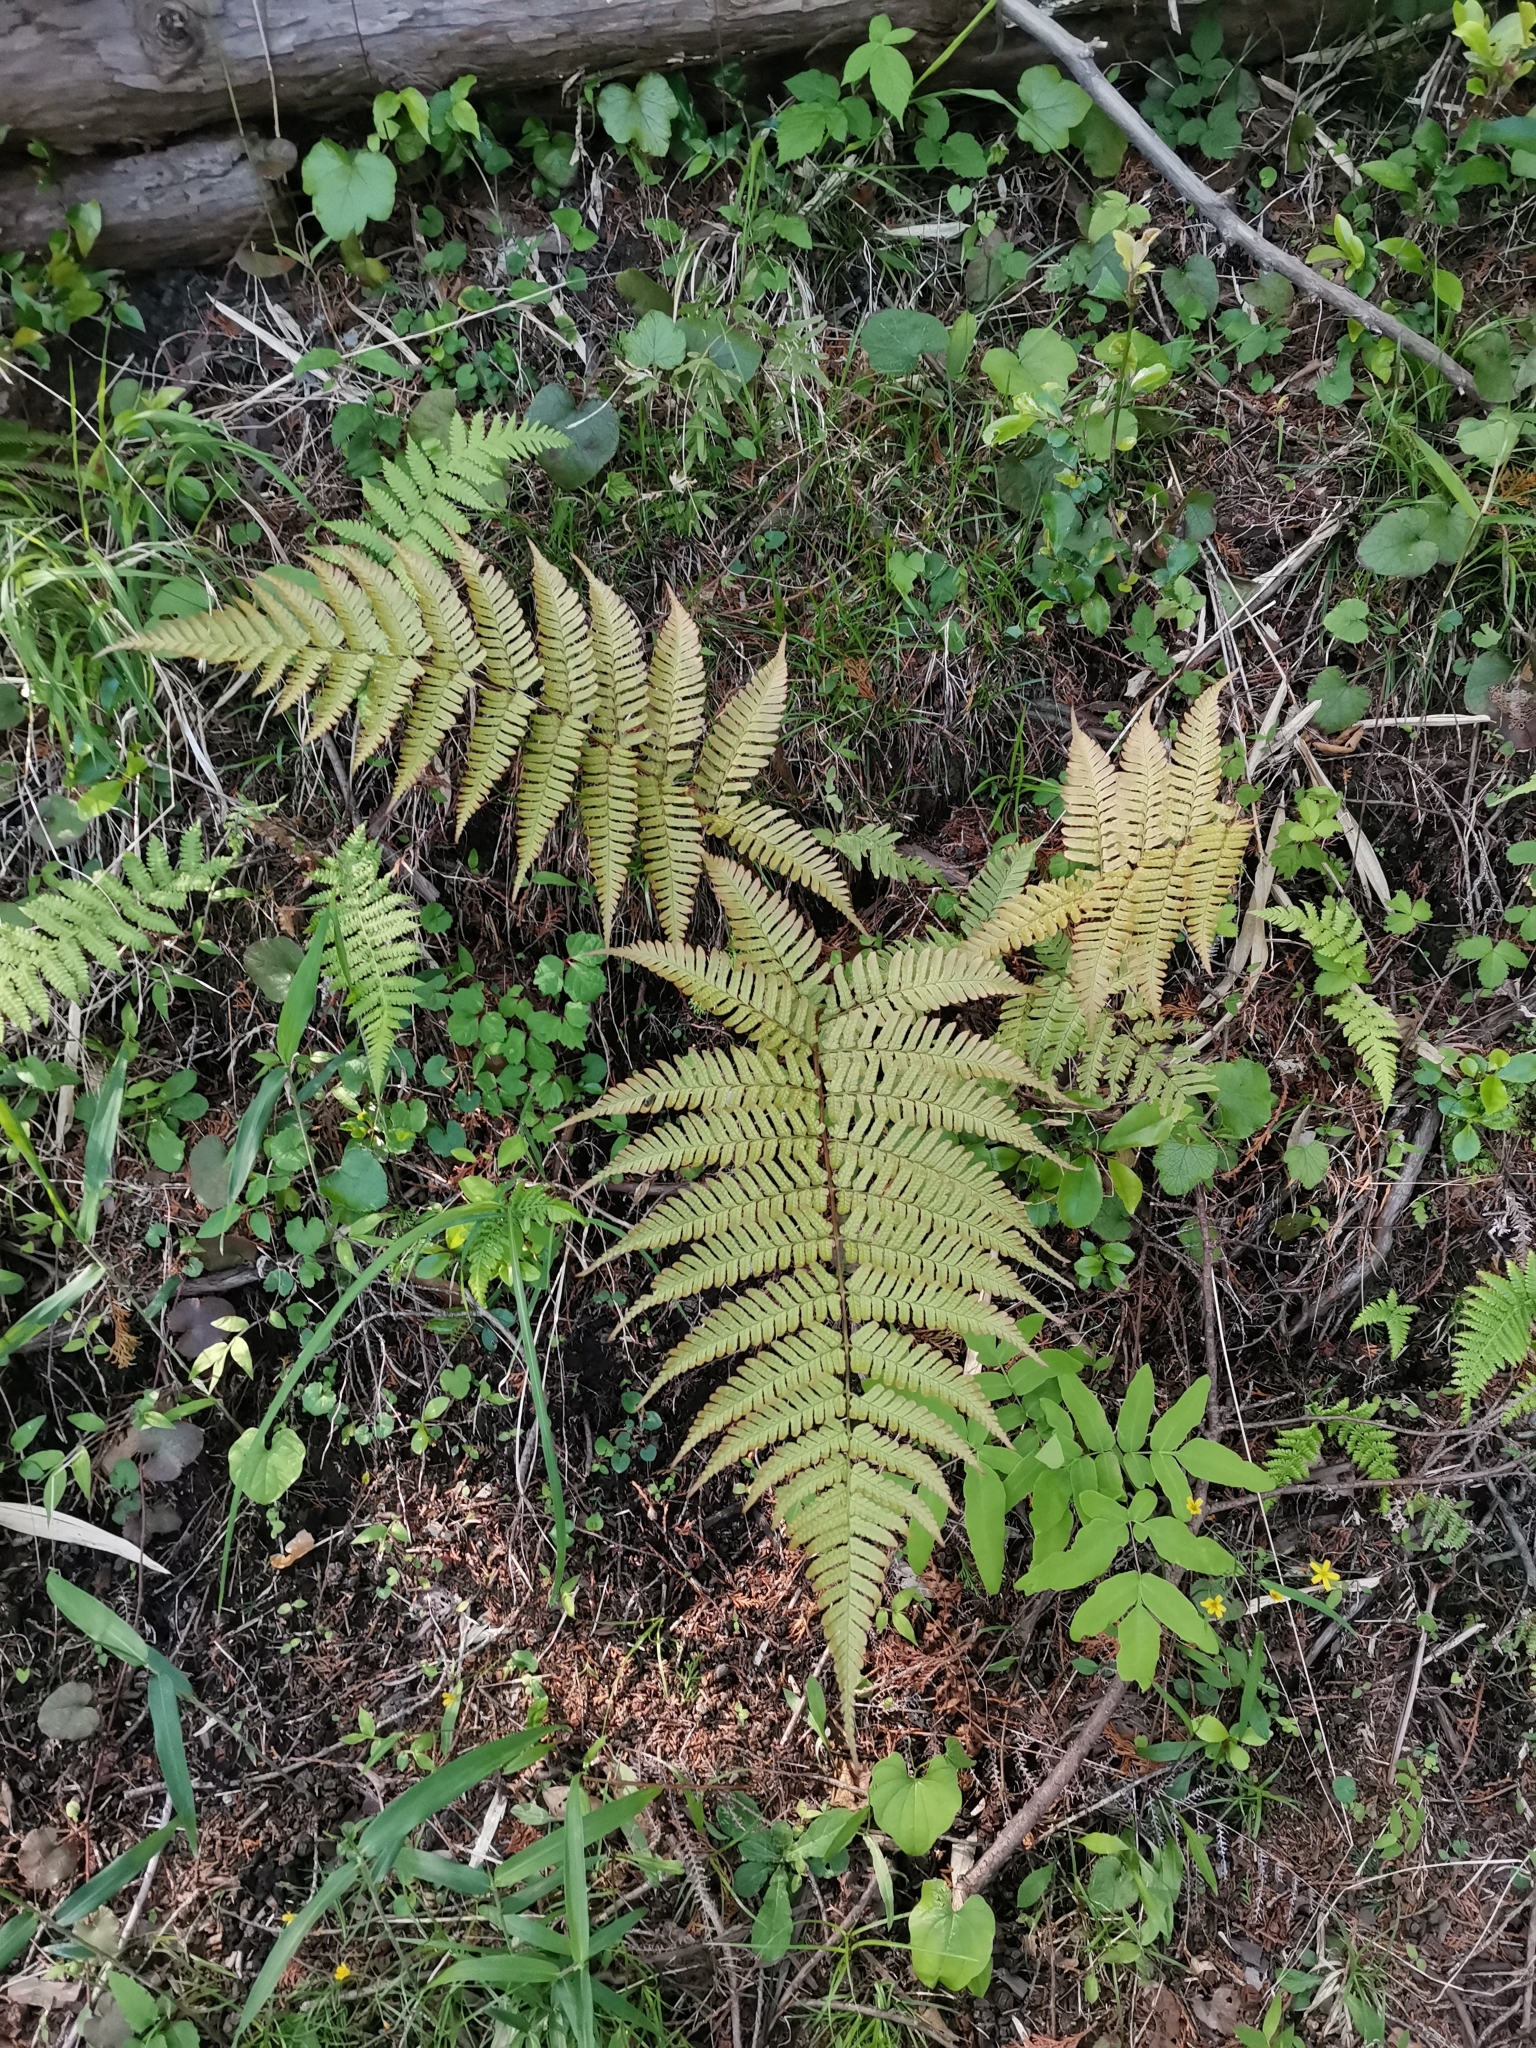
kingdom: Plantae
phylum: Tracheophyta
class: Polypodiopsida
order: Polypodiales
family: Dryopteridaceae
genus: Dryopteris
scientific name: Dryopteris erythrosora
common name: Autumn fern
